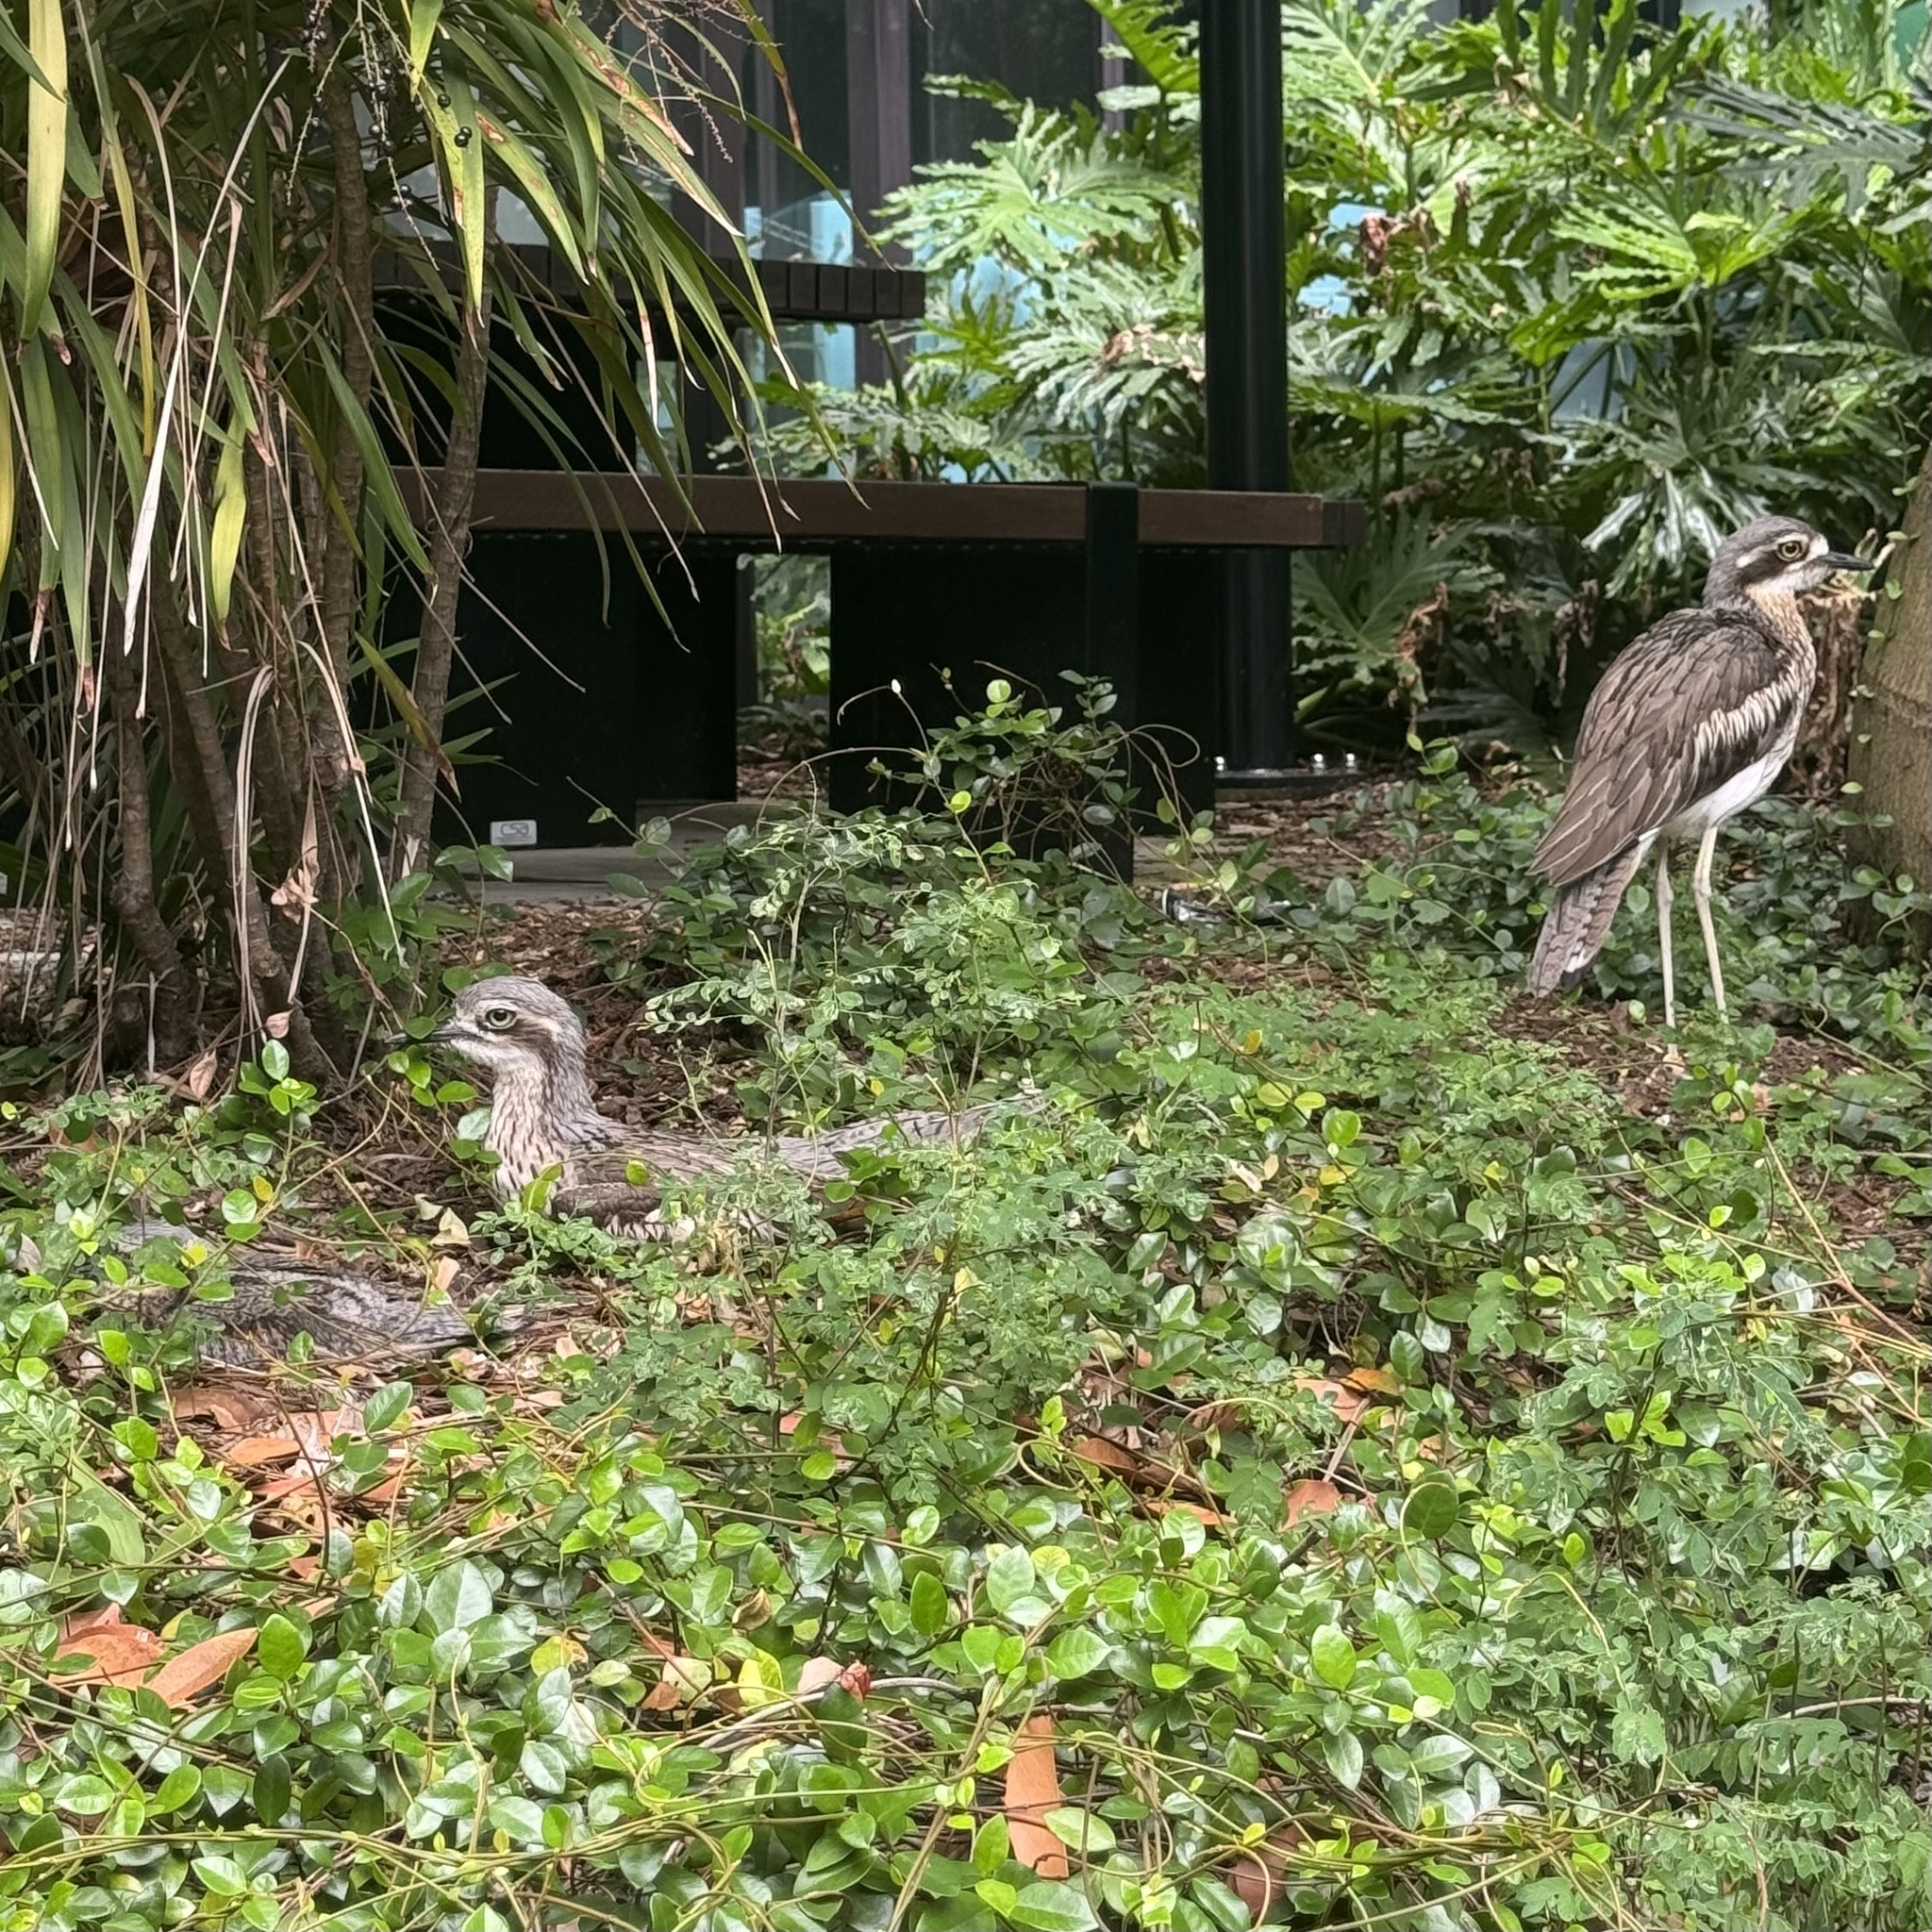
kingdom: Animalia
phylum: Chordata
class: Aves
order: Charadriiformes
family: Burhinidae
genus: Burhinus
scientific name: Burhinus grallarius
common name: Bush stone-curlew
